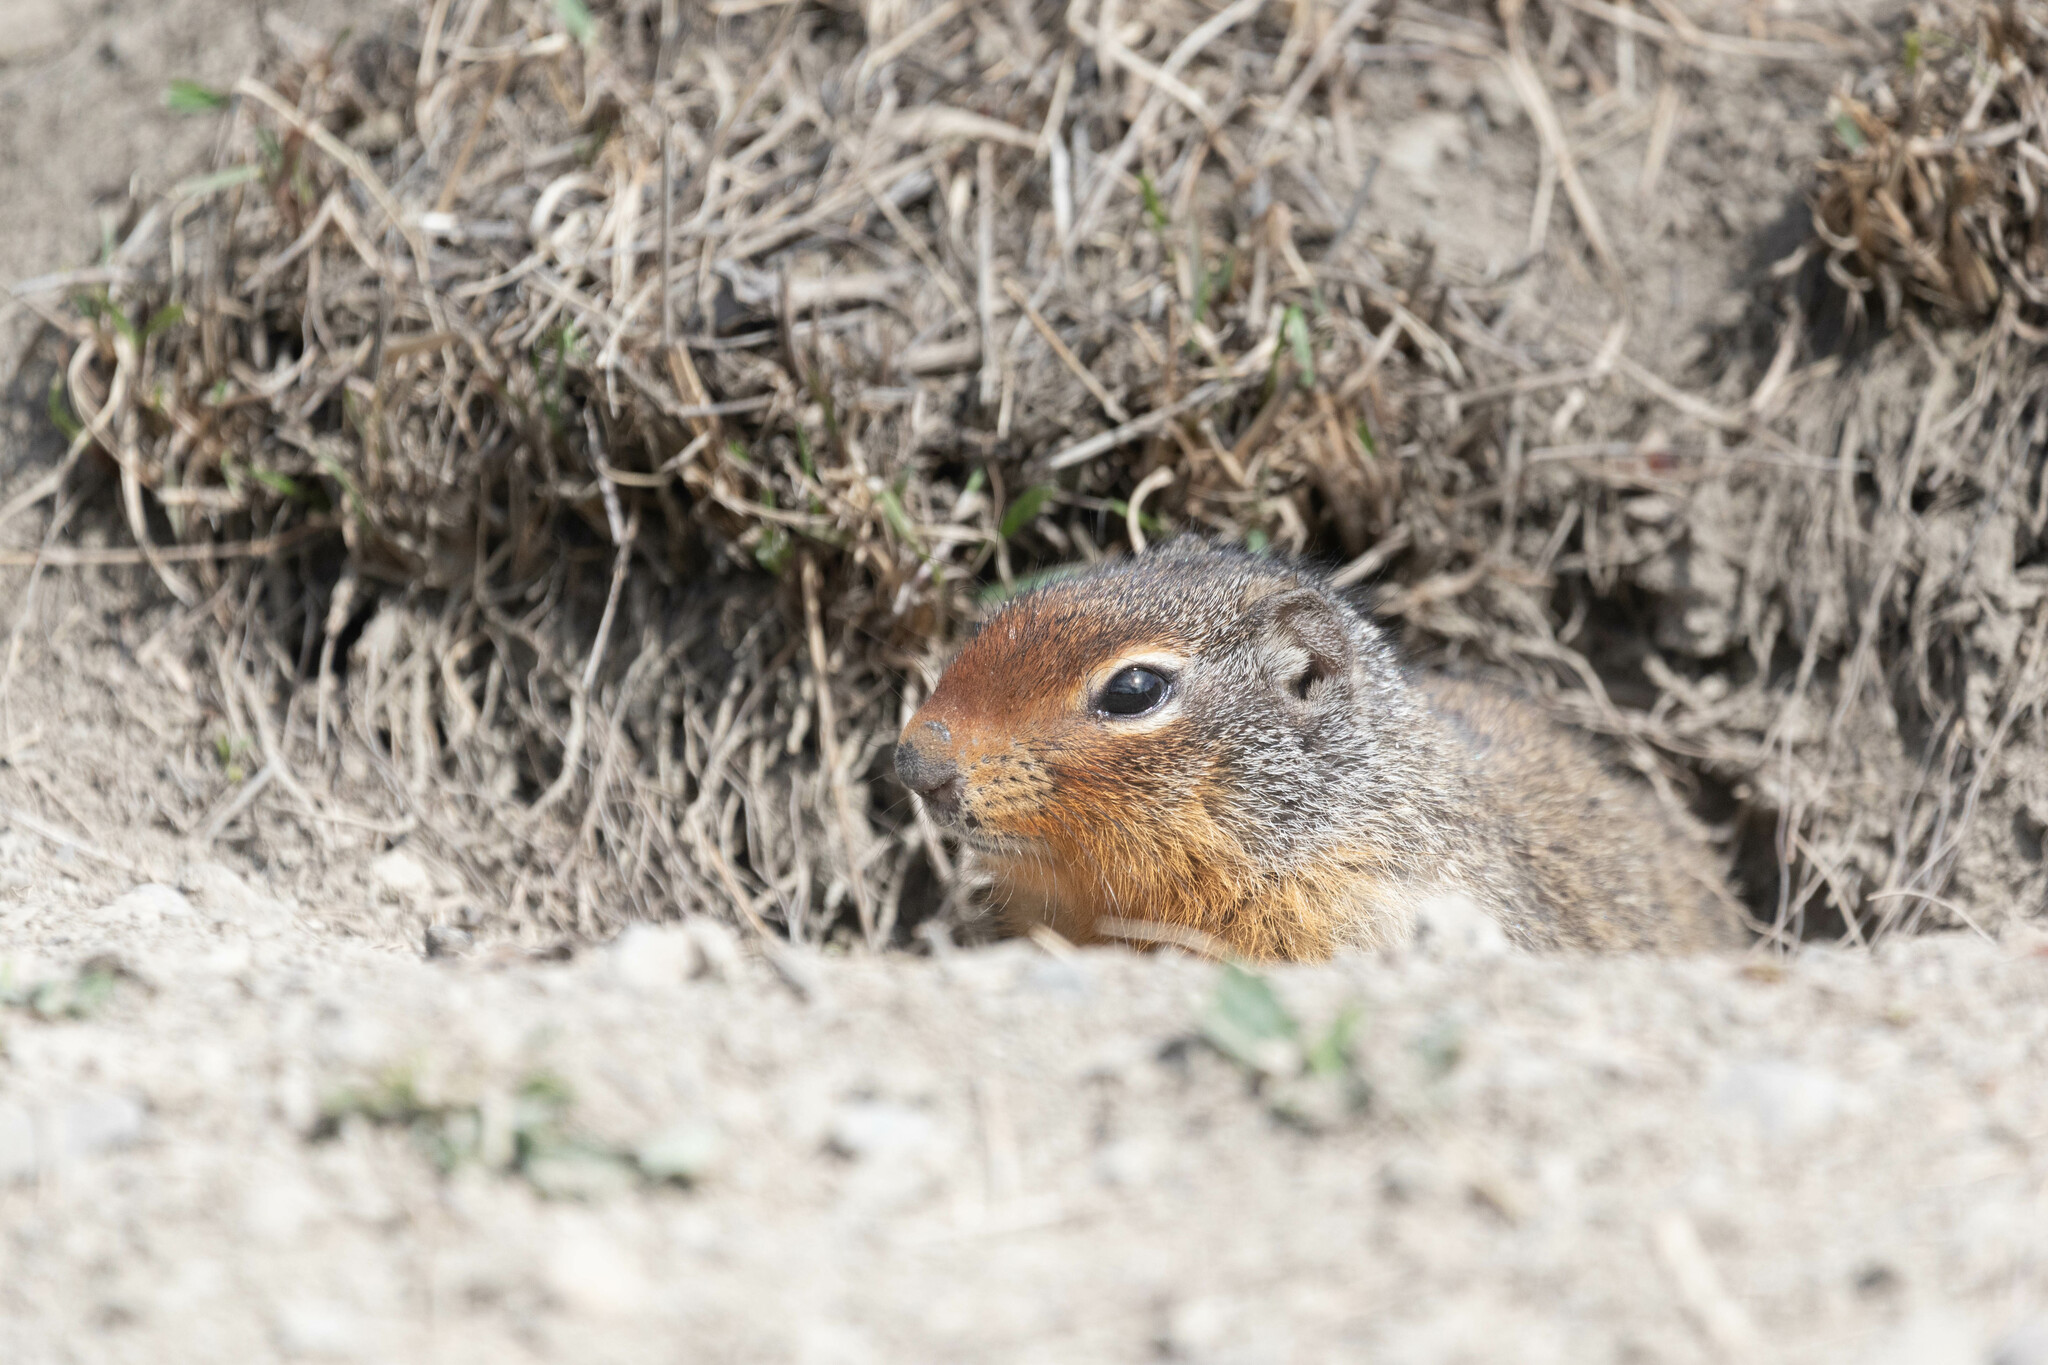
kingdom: Animalia
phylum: Chordata
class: Mammalia
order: Rodentia
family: Sciuridae
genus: Urocitellus
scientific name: Urocitellus columbianus
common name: Columbian ground squirrel
